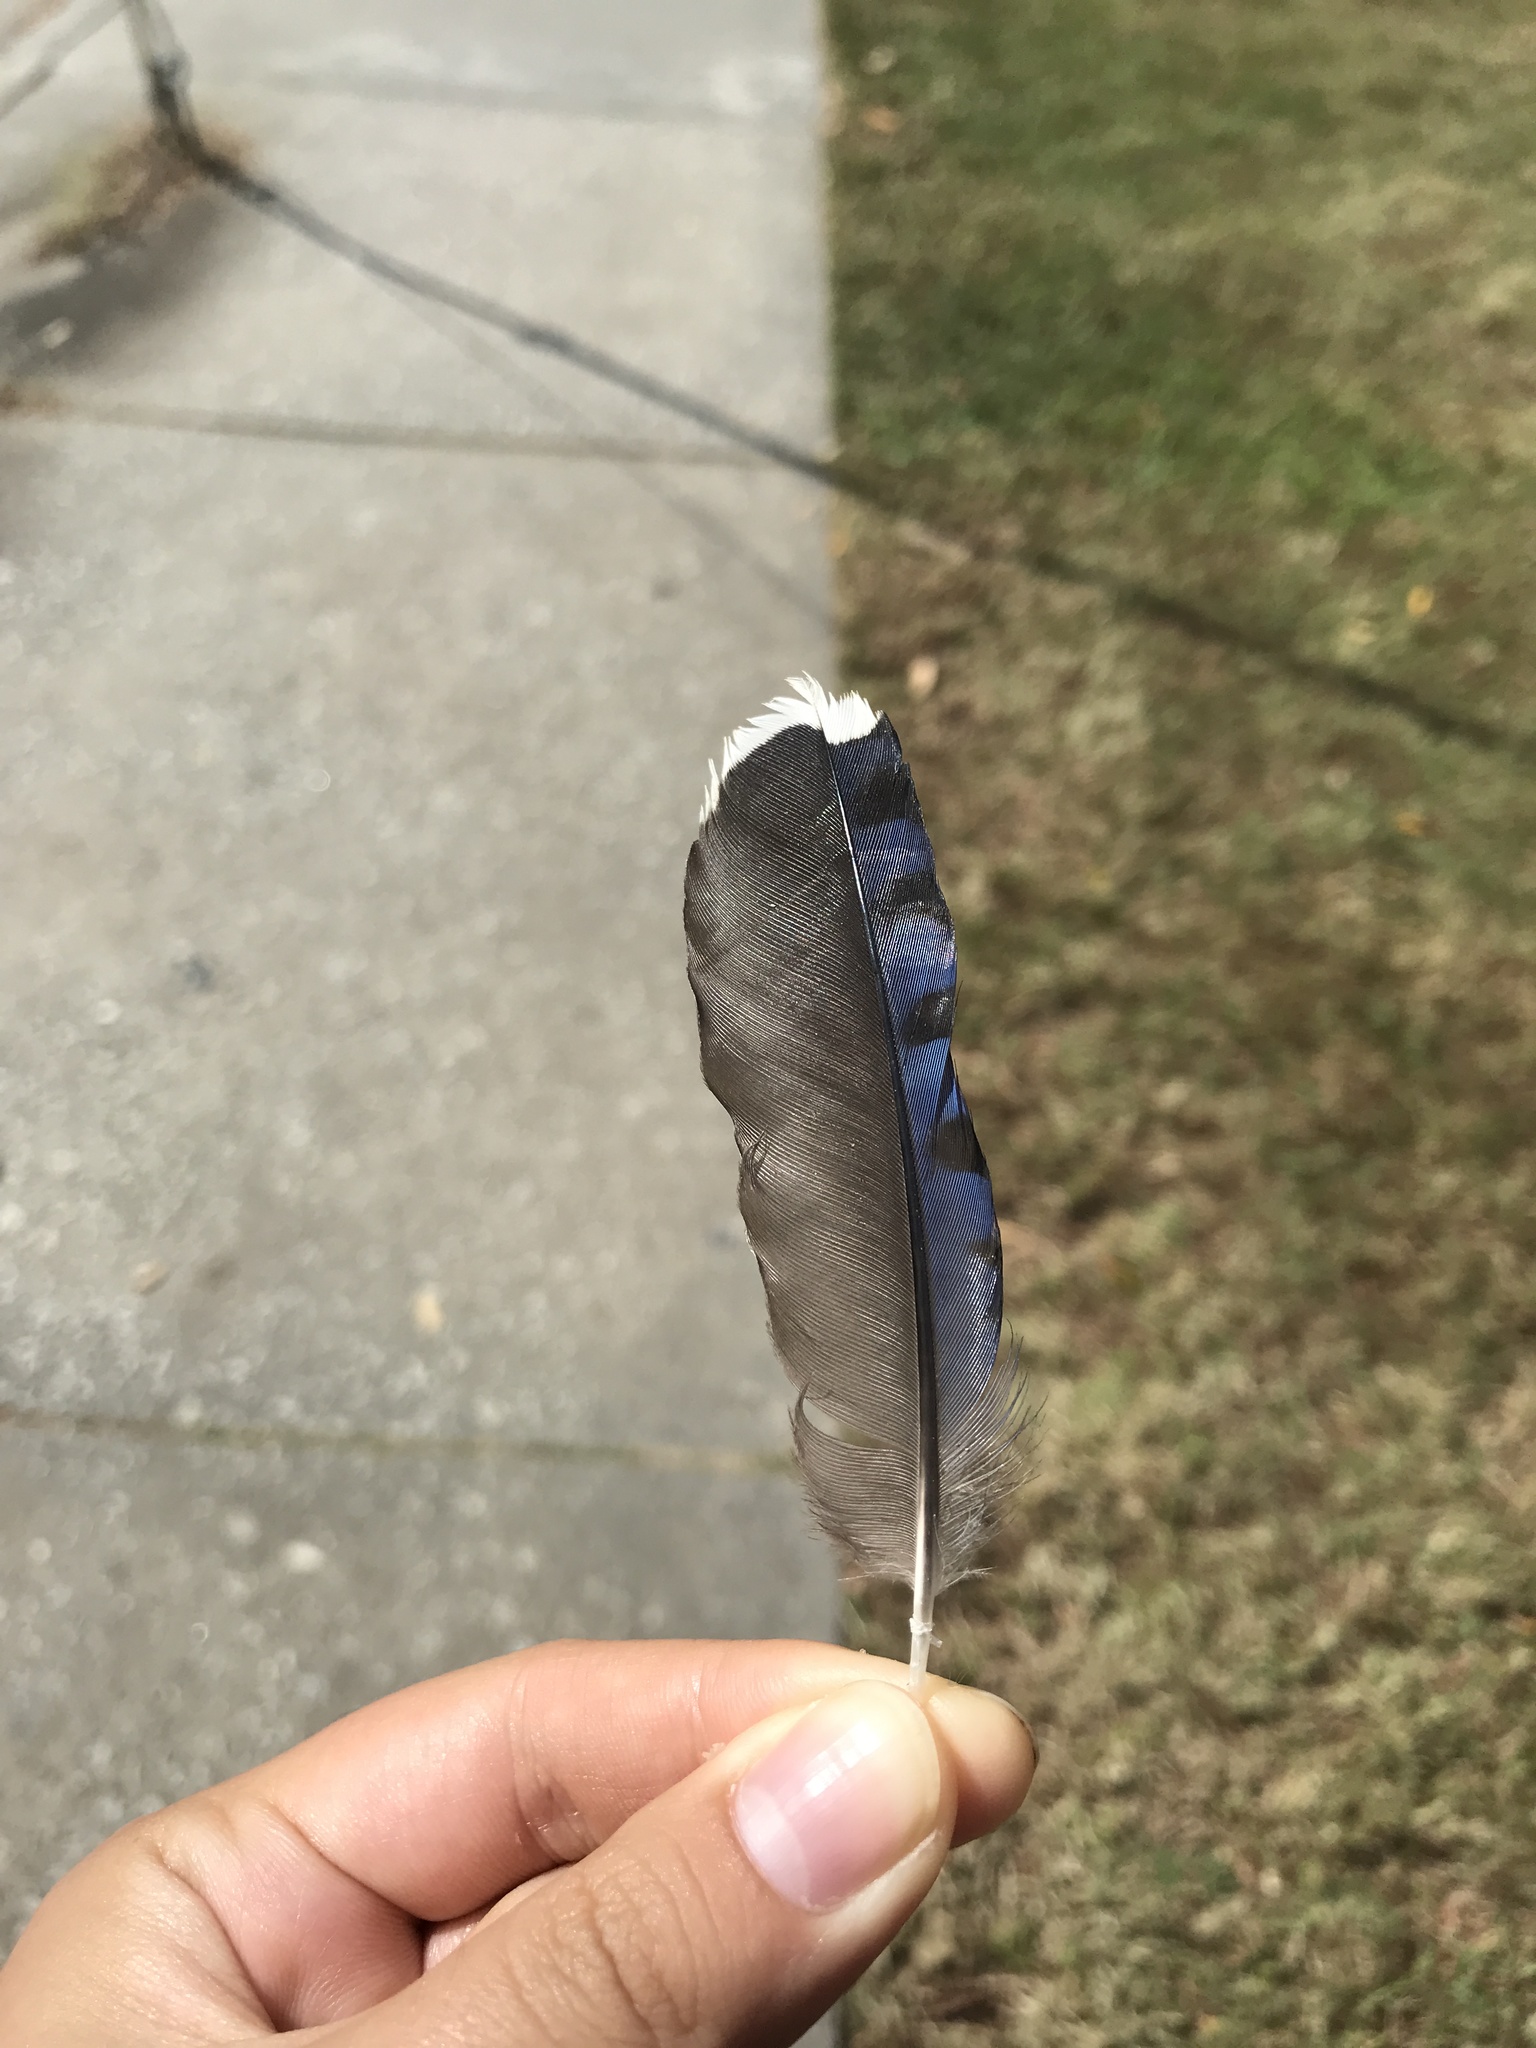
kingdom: Animalia
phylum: Chordata
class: Aves
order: Passeriformes
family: Corvidae
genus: Cyanocitta
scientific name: Cyanocitta cristata
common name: Blue jay
